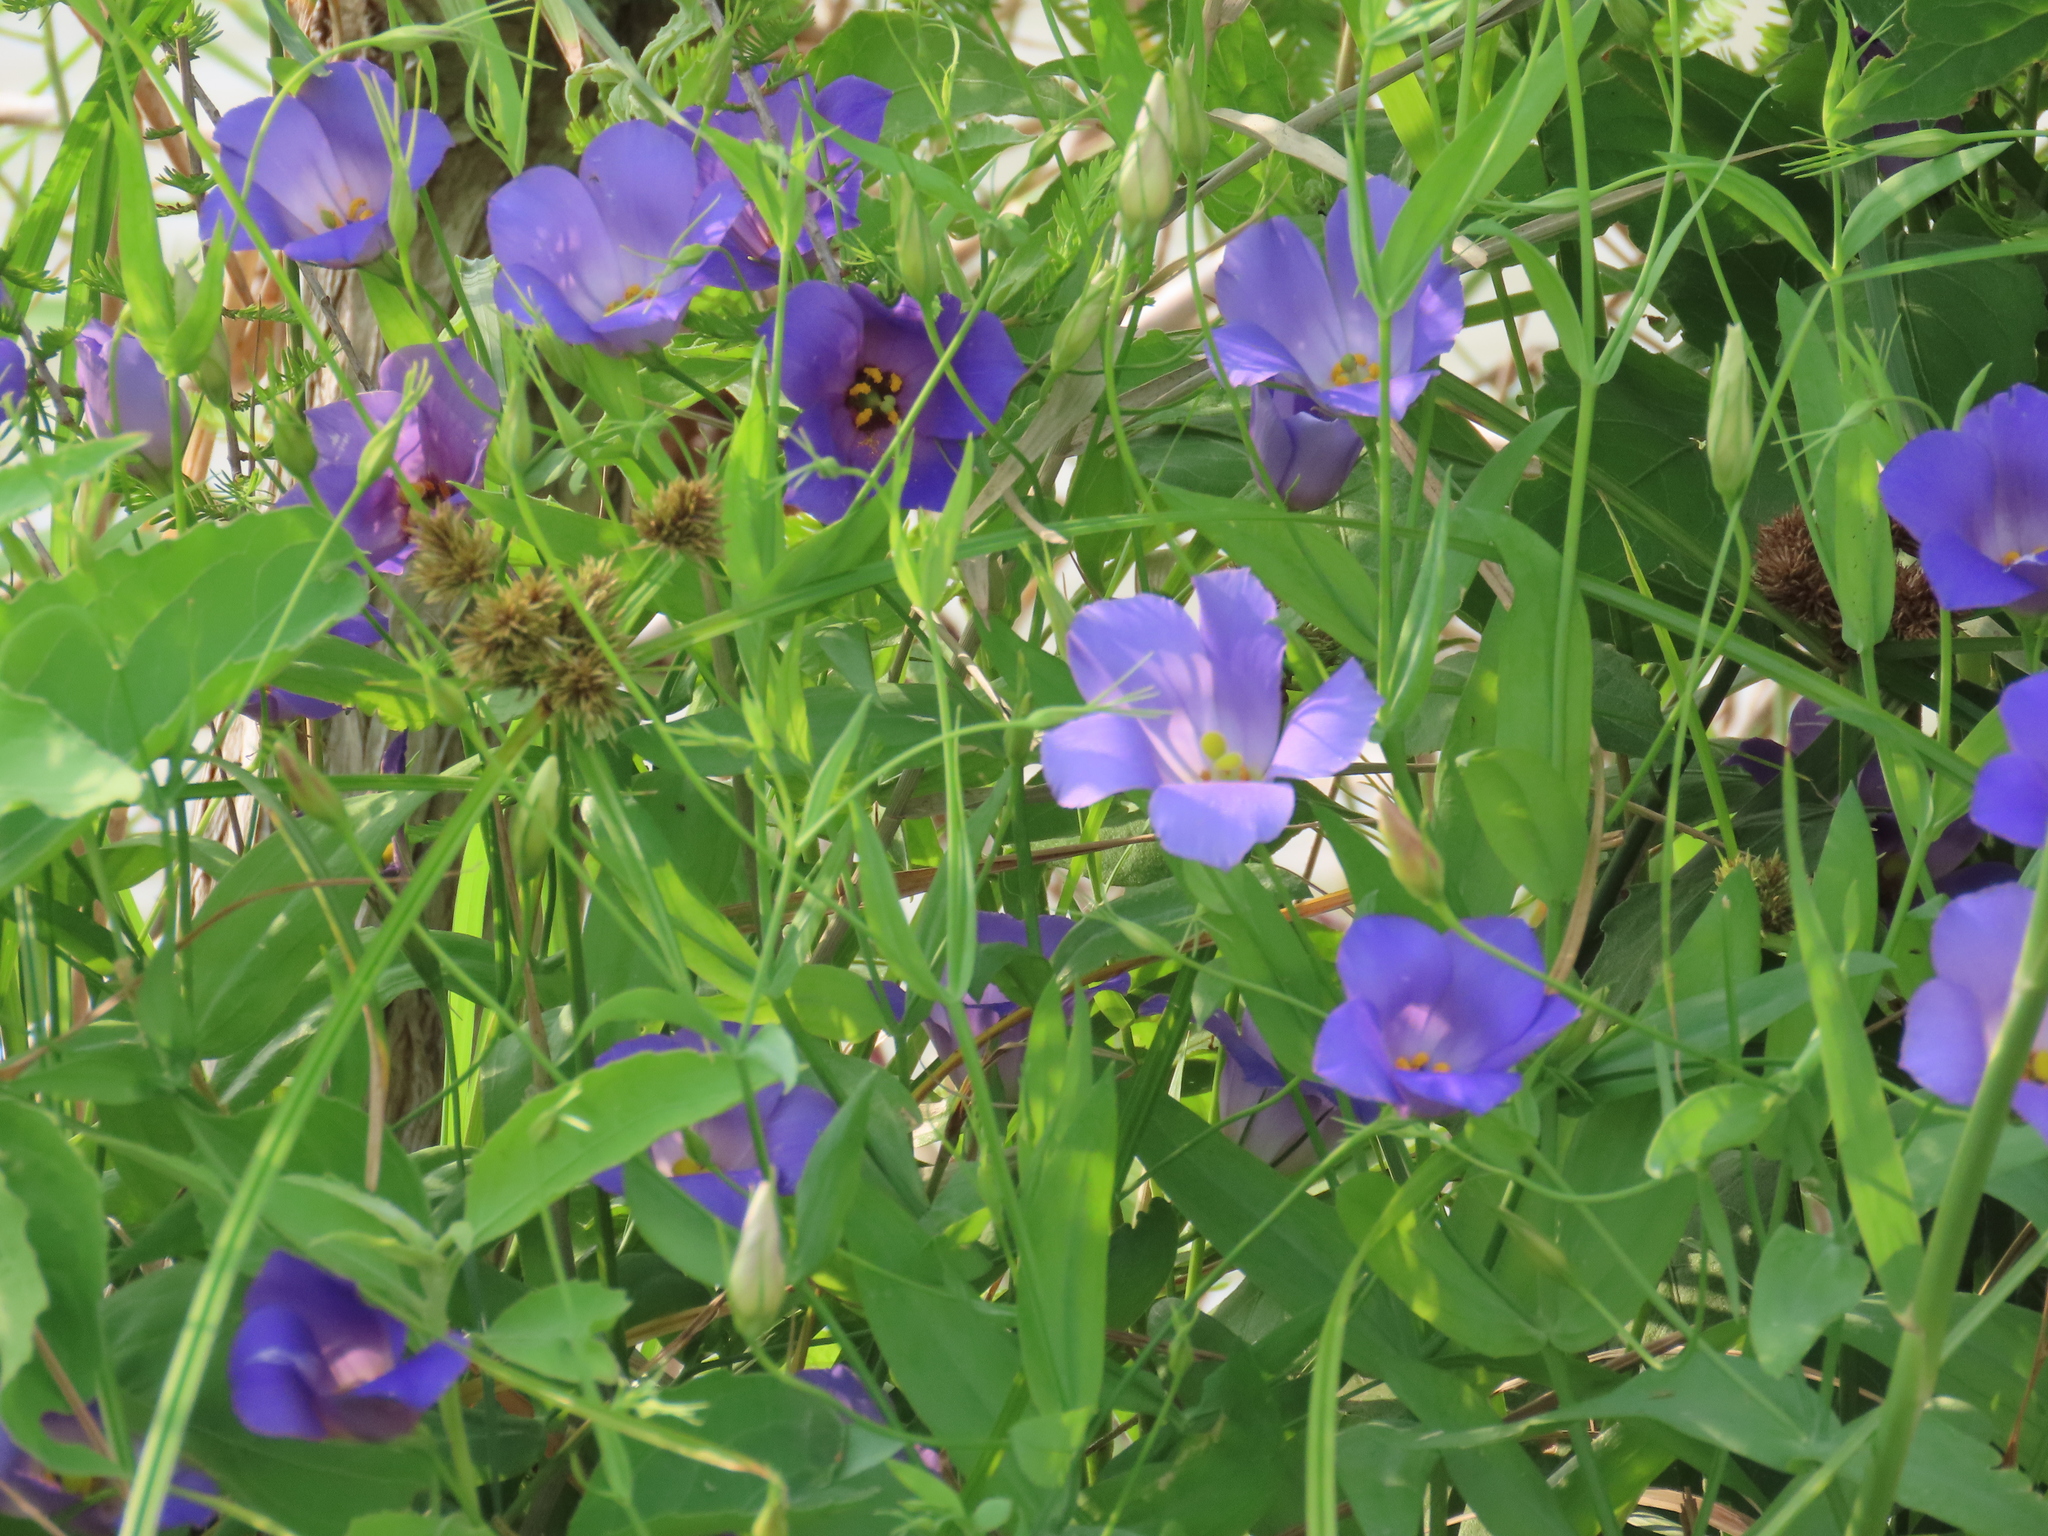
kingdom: Plantae
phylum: Tracheophyta
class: Magnoliopsida
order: Gentianales
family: Gentianaceae
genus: Eustoma
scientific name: Eustoma russellianum
